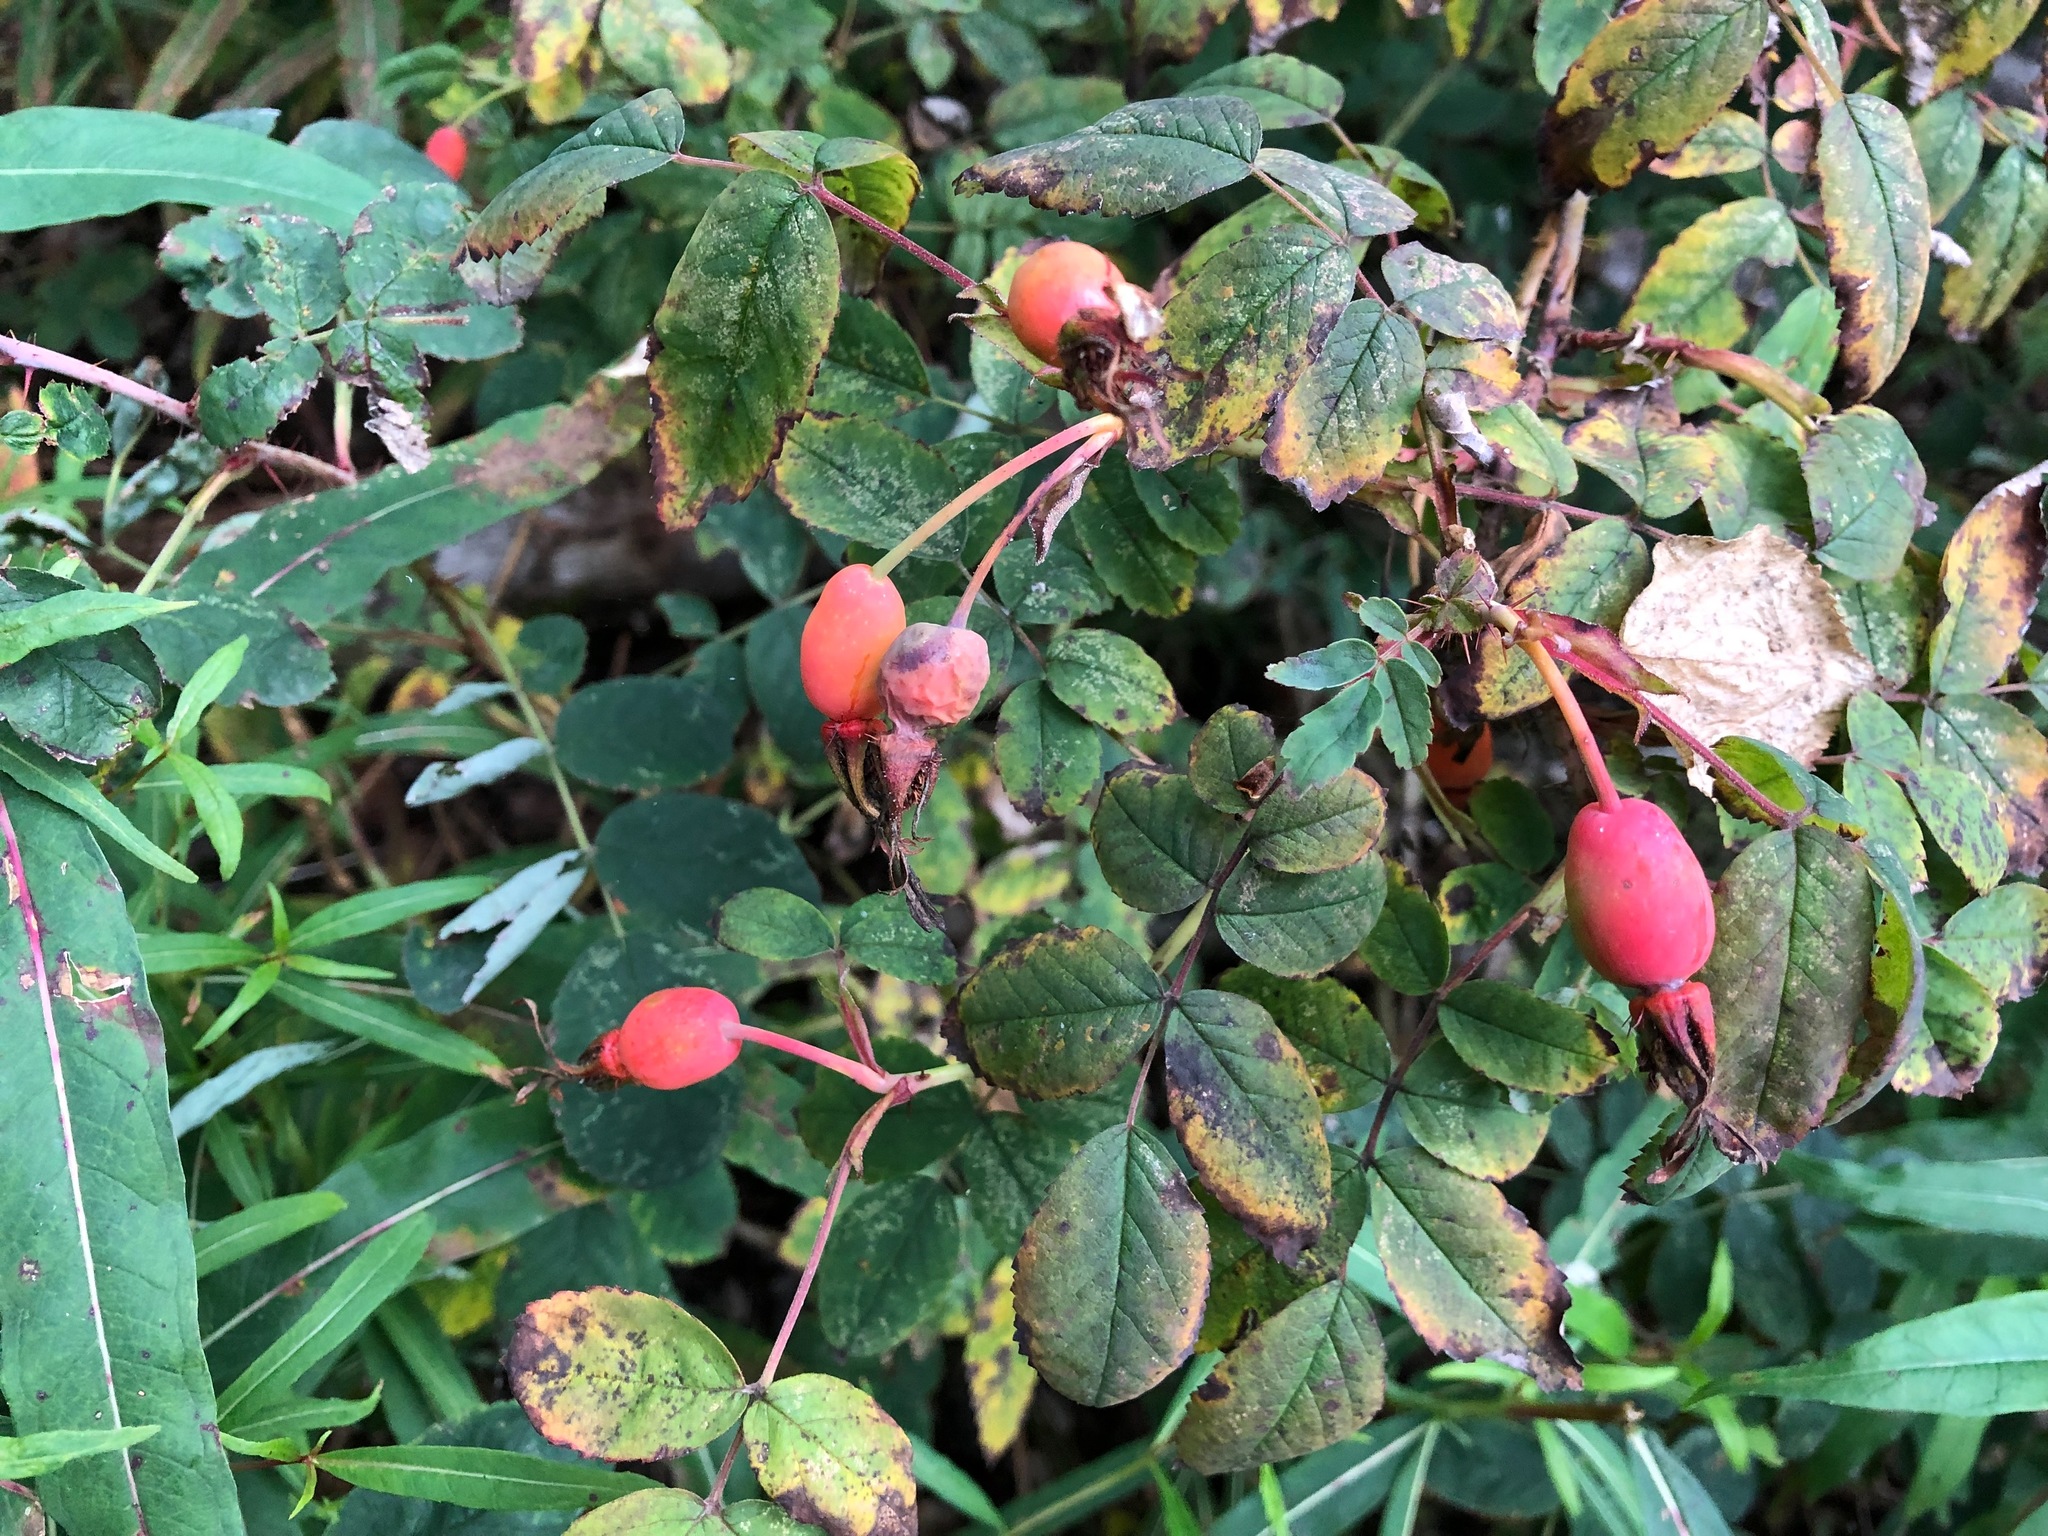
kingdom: Plantae
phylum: Tracheophyta
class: Magnoliopsida
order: Rosales
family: Rosaceae
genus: Rosa
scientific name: Rosa acicularis
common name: Prickly rose
